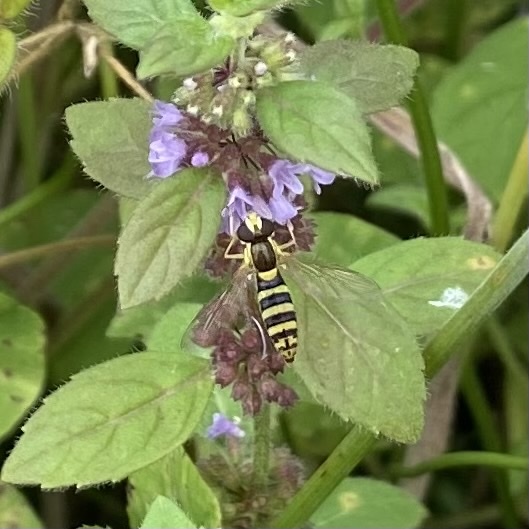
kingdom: Animalia
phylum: Arthropoda
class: Insecta
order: Diptera
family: Syrphidae
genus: Sphaerophoria
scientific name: Sphaerophoria
